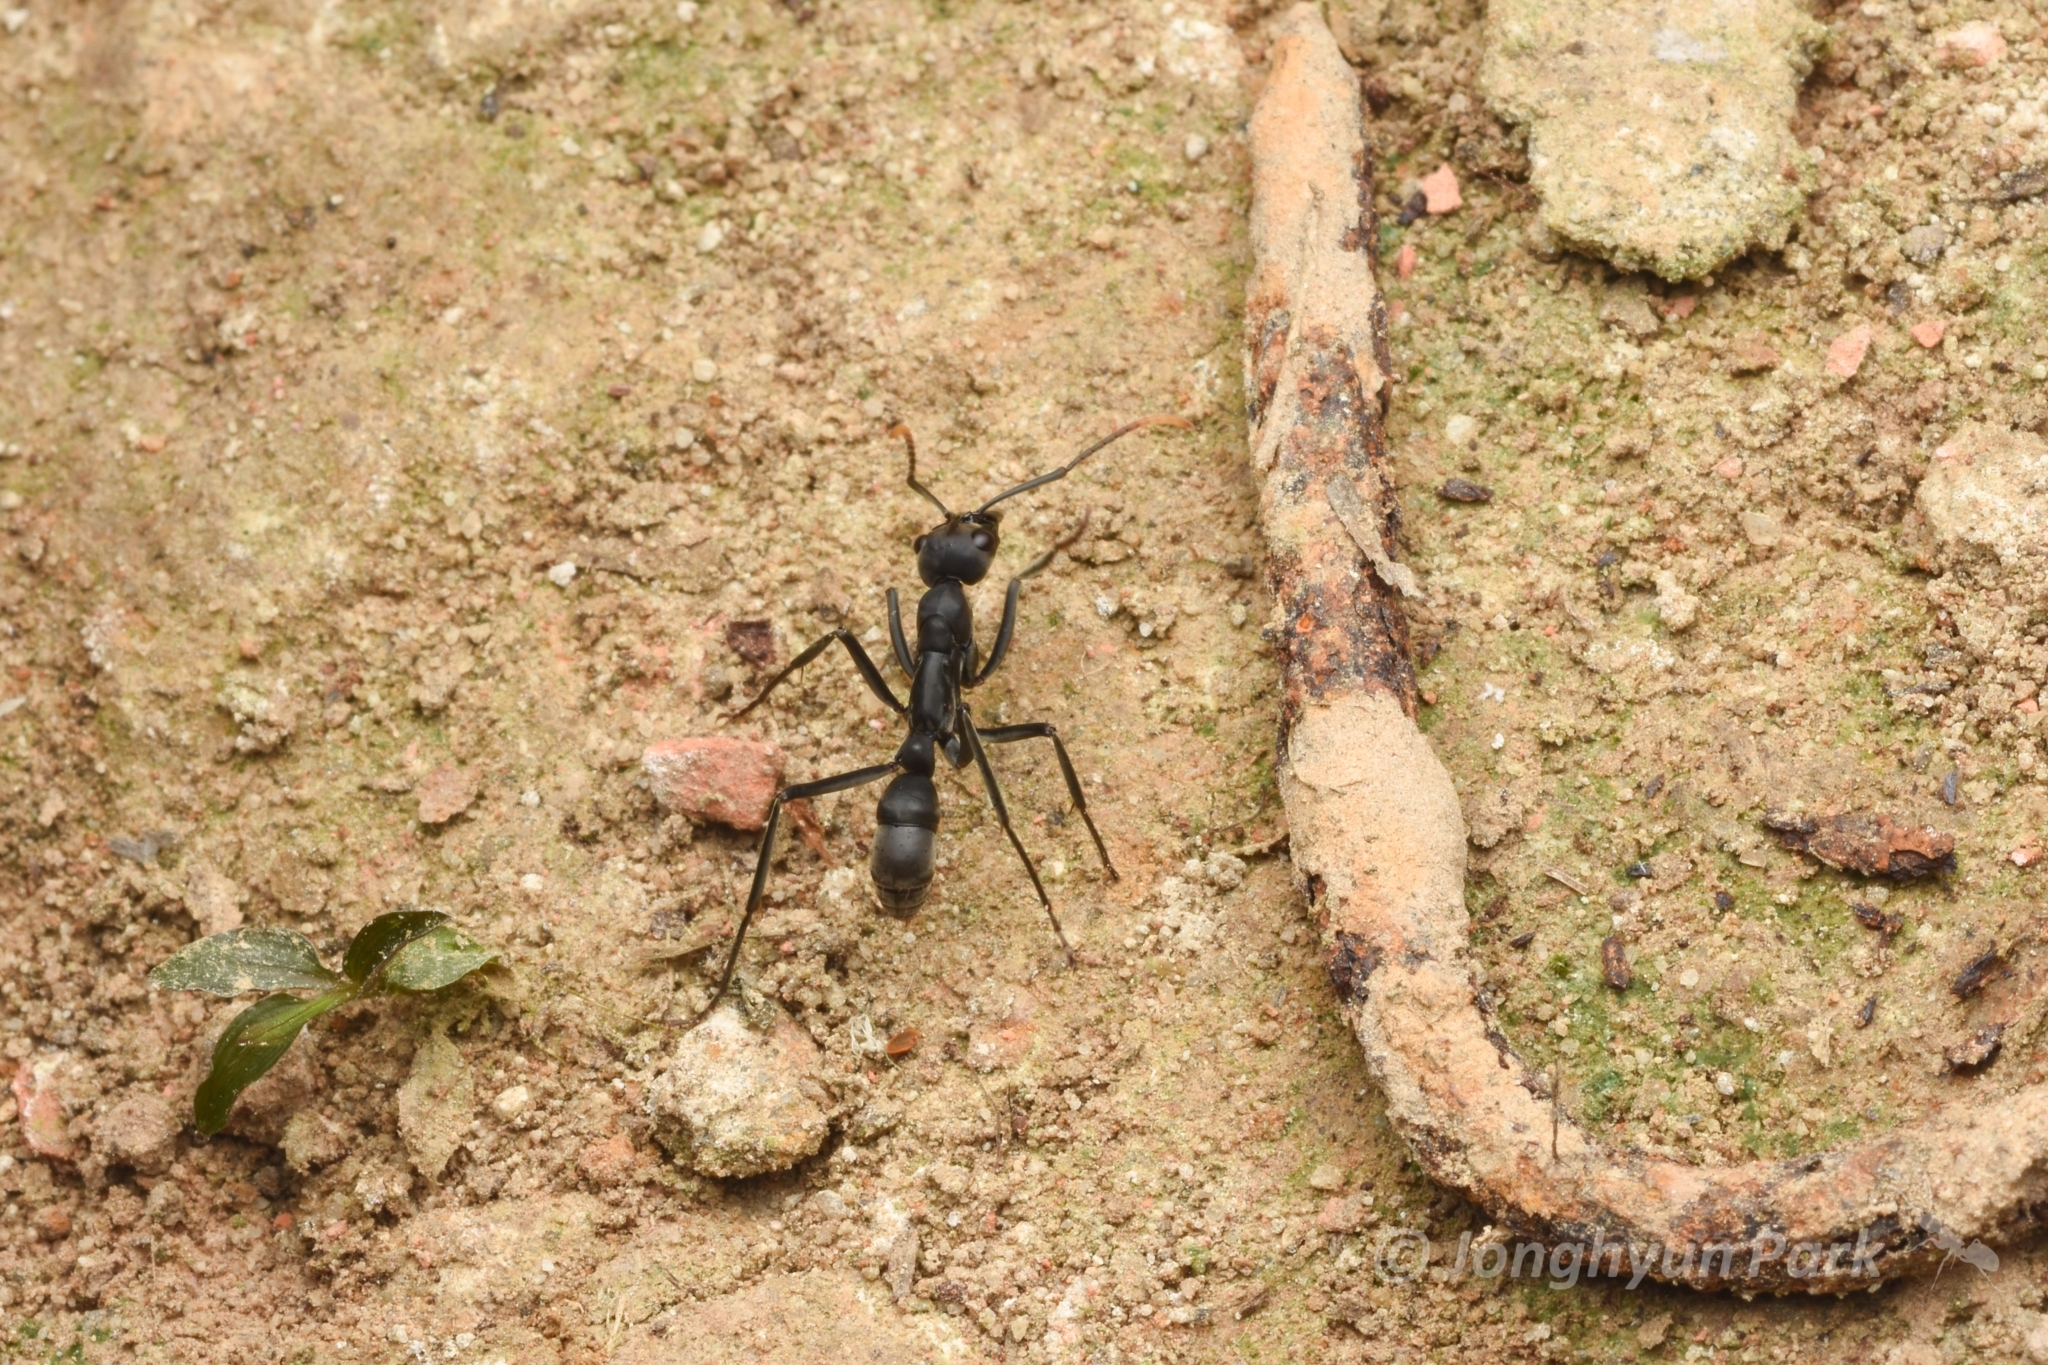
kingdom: Animalia
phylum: Arthropoda
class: Insecta
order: Hymenoptera
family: Formicidae
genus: Pachycondyla
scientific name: Pachycondyla apicalis
